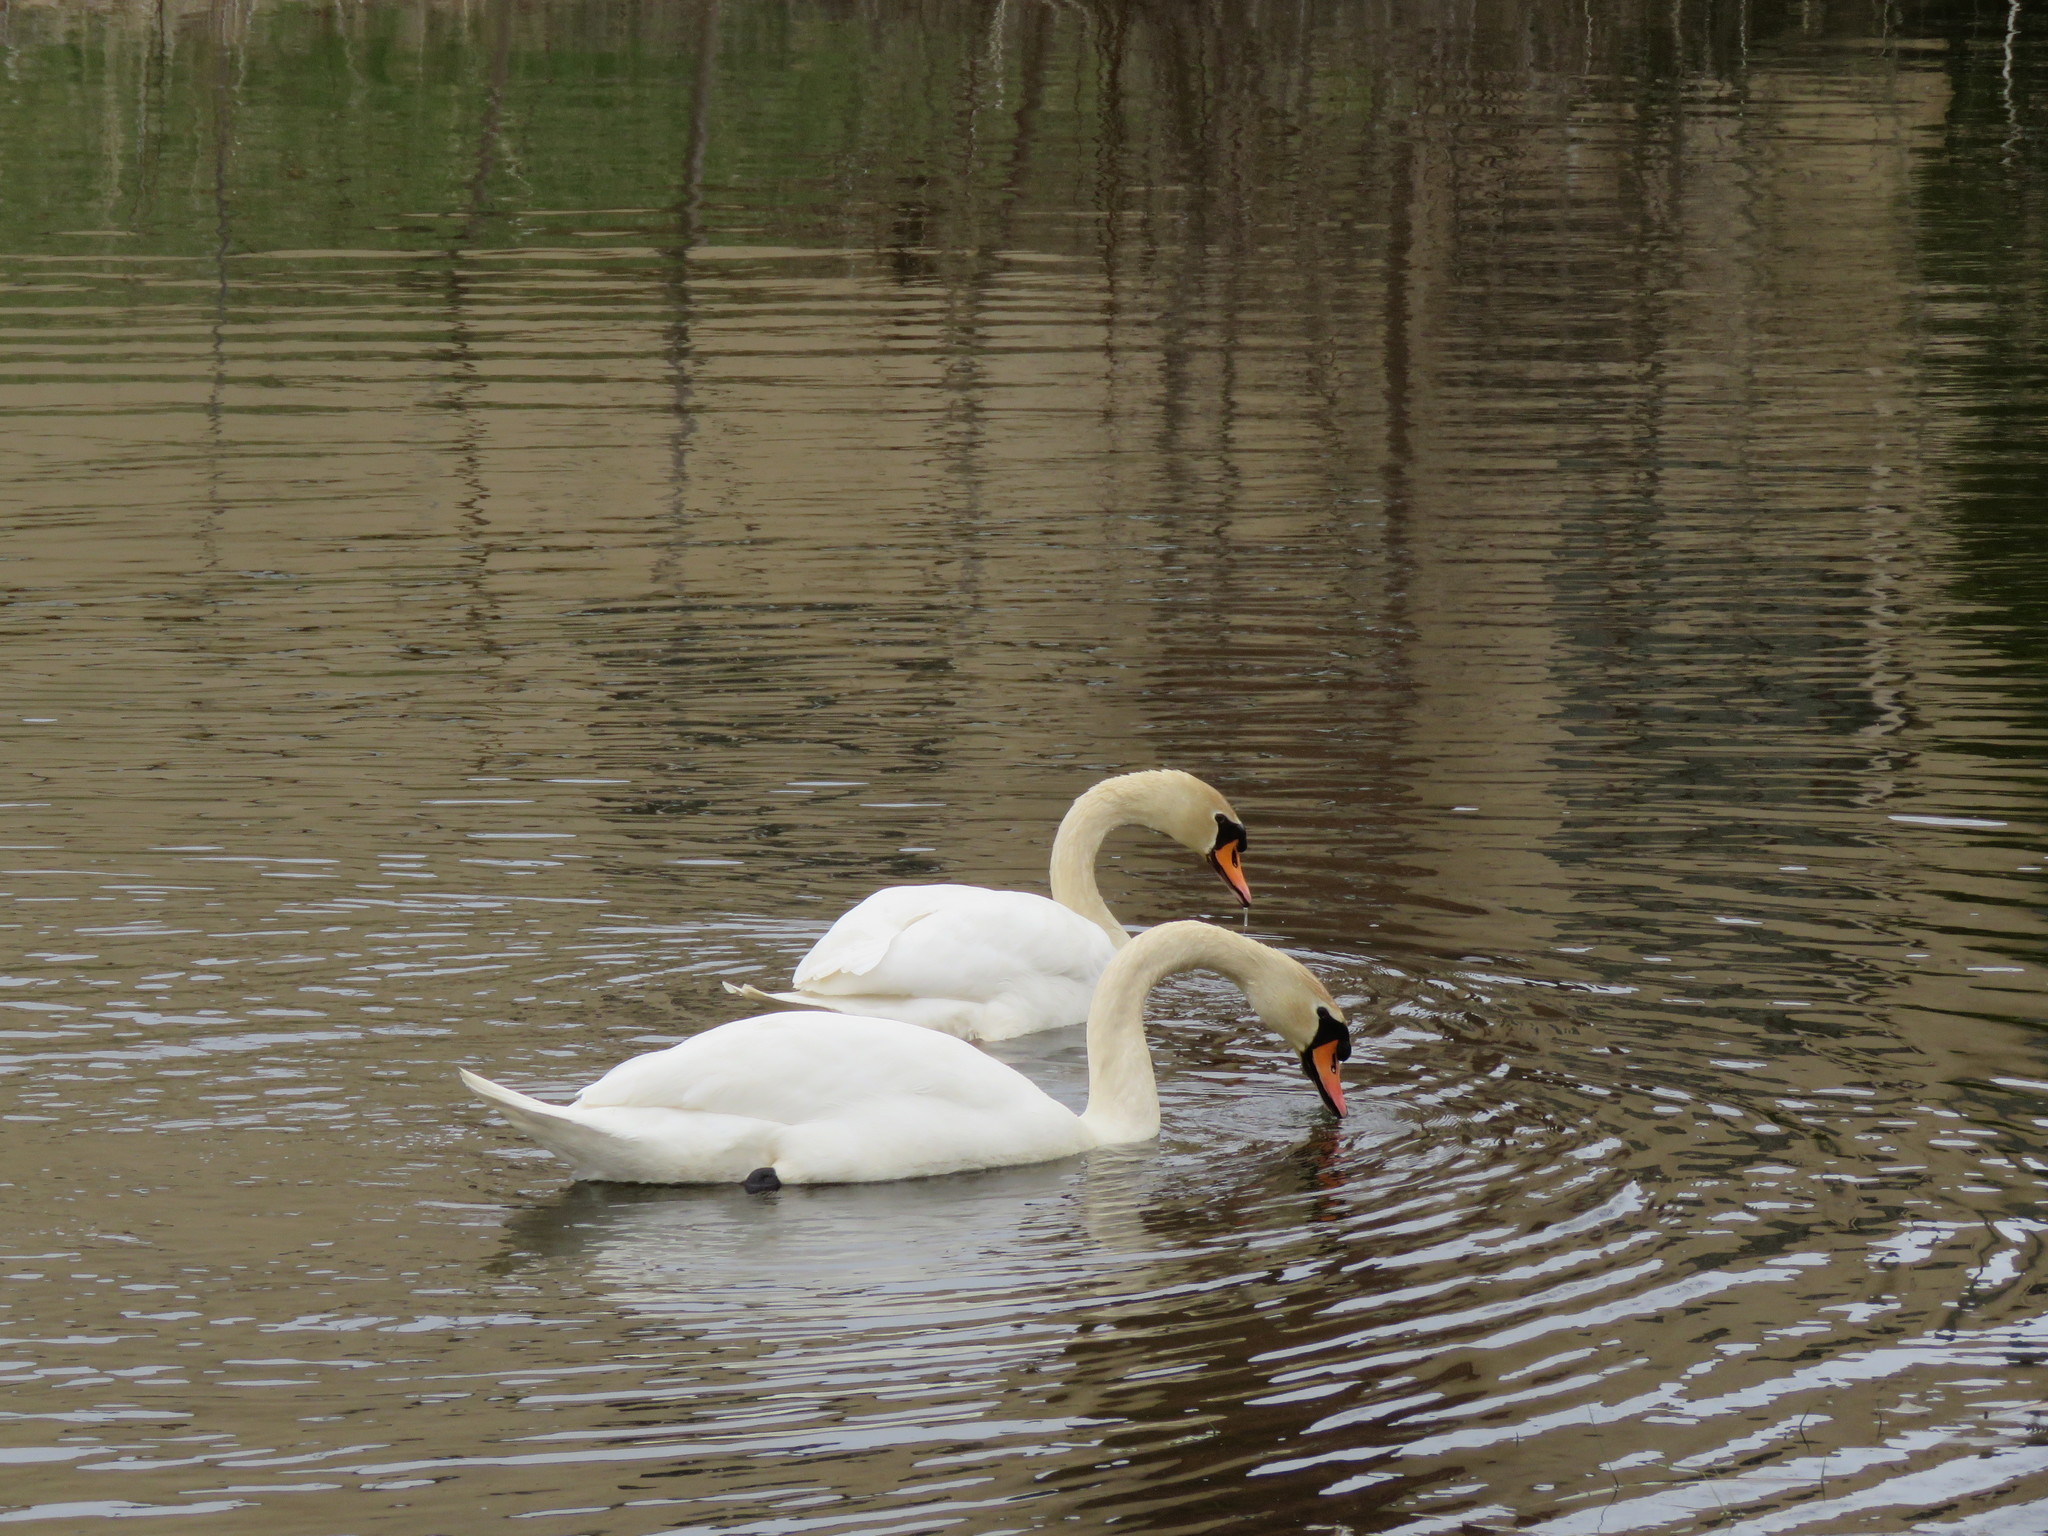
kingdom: Animalia
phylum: Chordata
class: Aves
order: Anseriformes
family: Anatidae
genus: Cygnus
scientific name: Cygnus olor
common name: Mute swan
